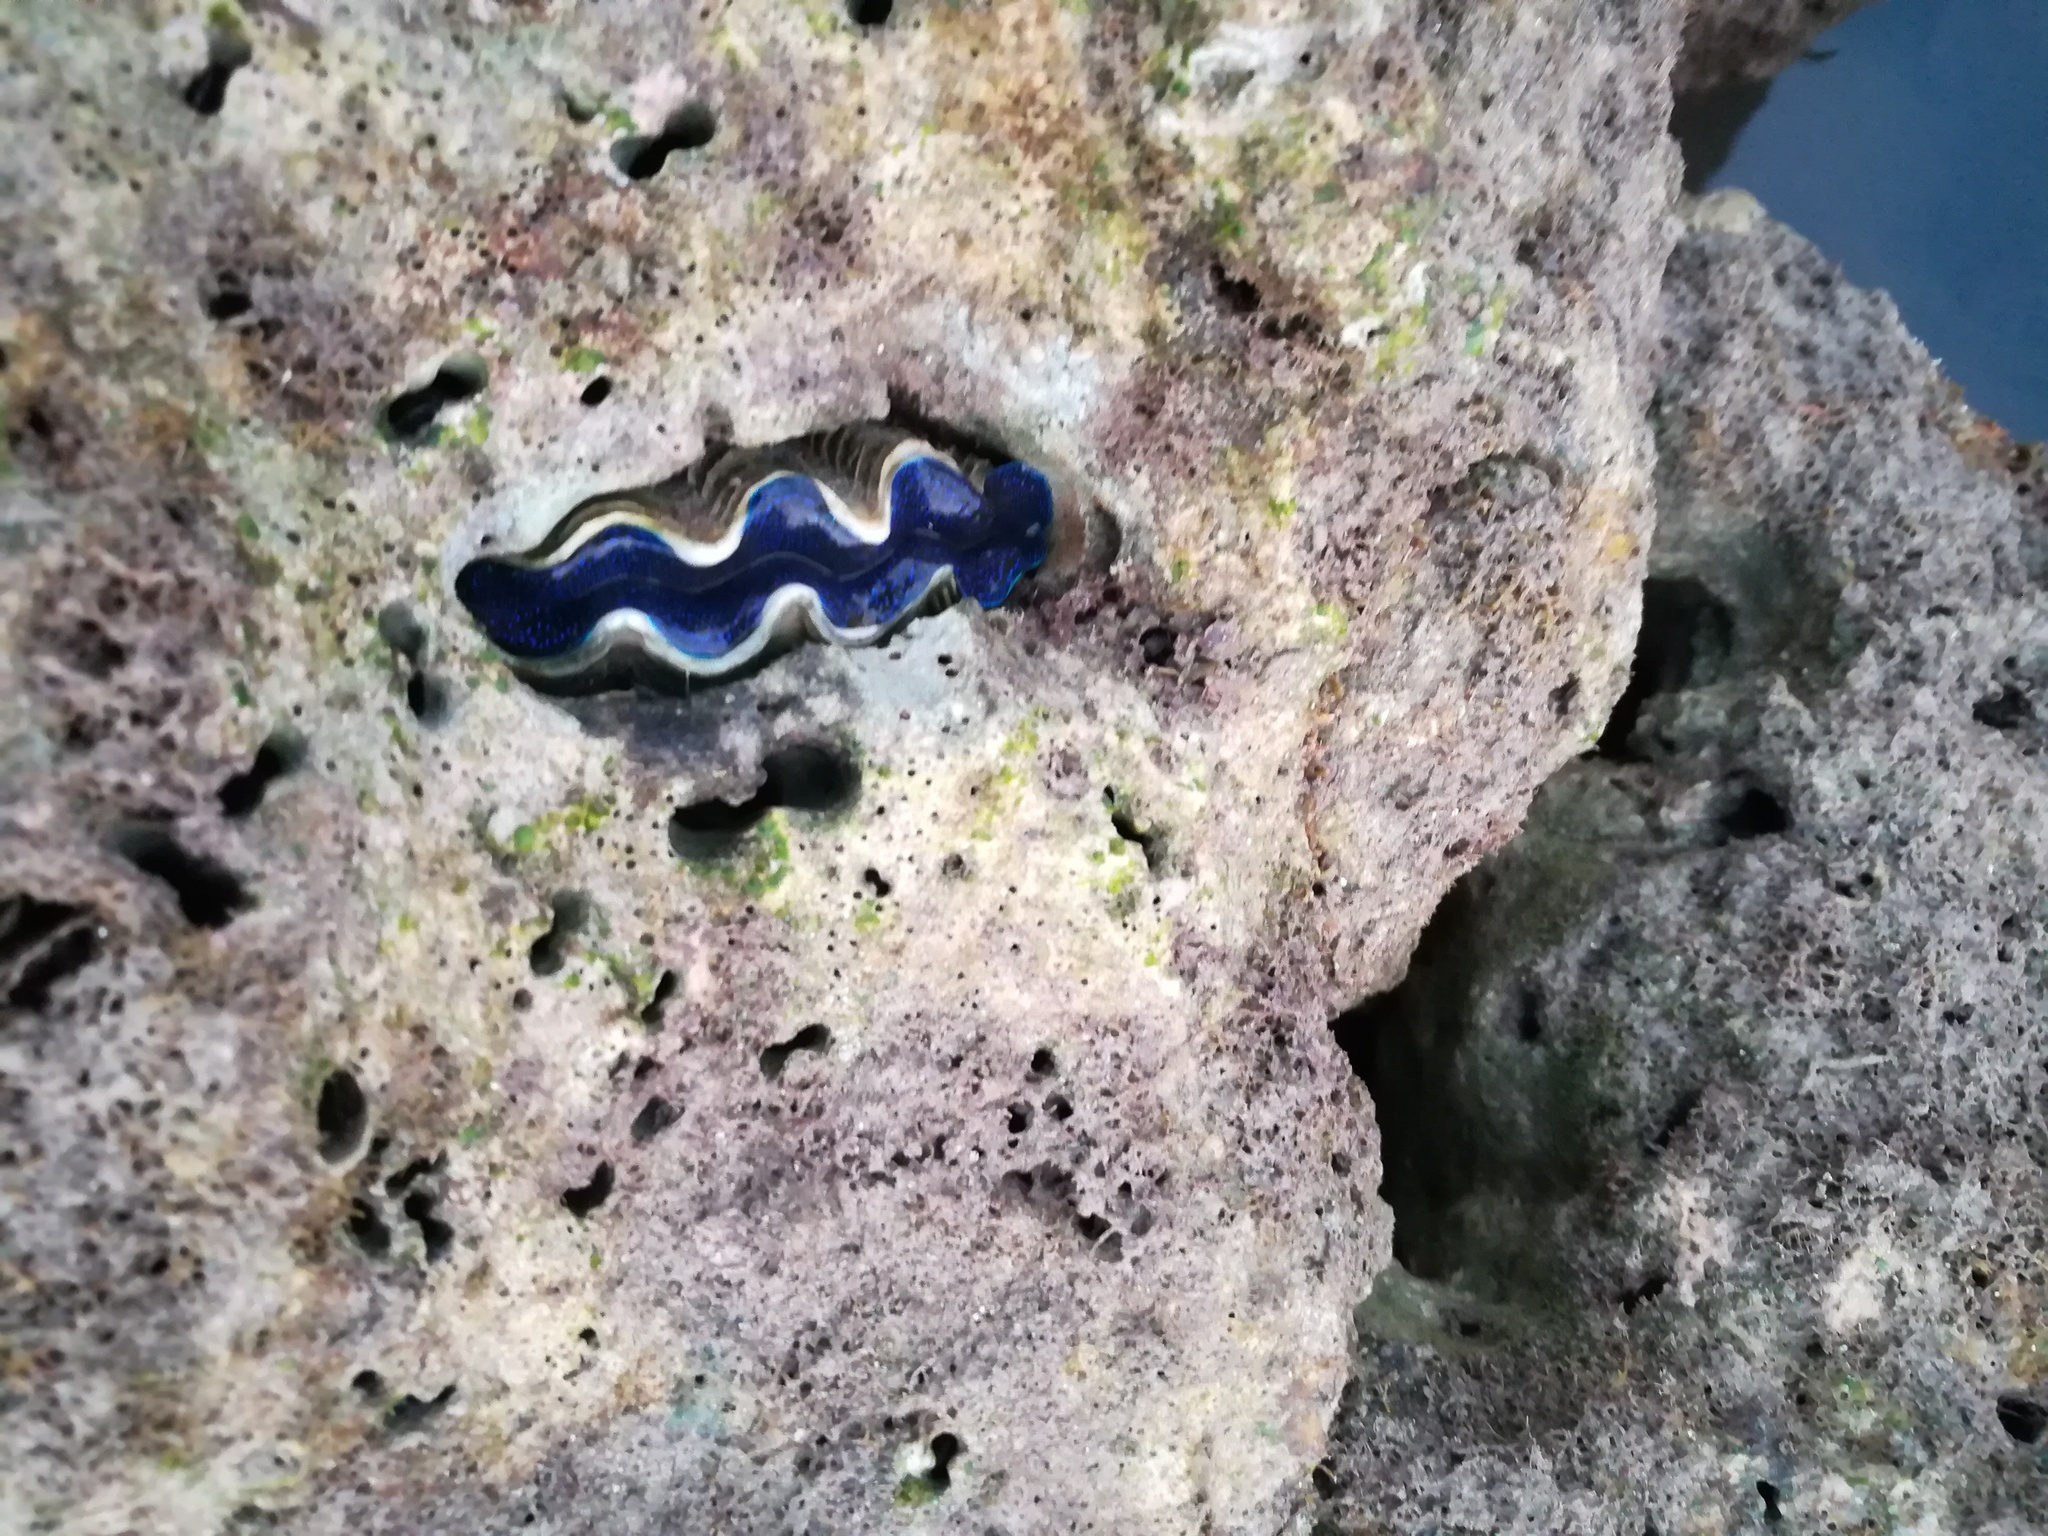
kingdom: Animalia
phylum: Mollusca
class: Bivalvia
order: Cardiida
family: Cardiidae
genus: Tridacna
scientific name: Tridacna crocea
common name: Boring clam
